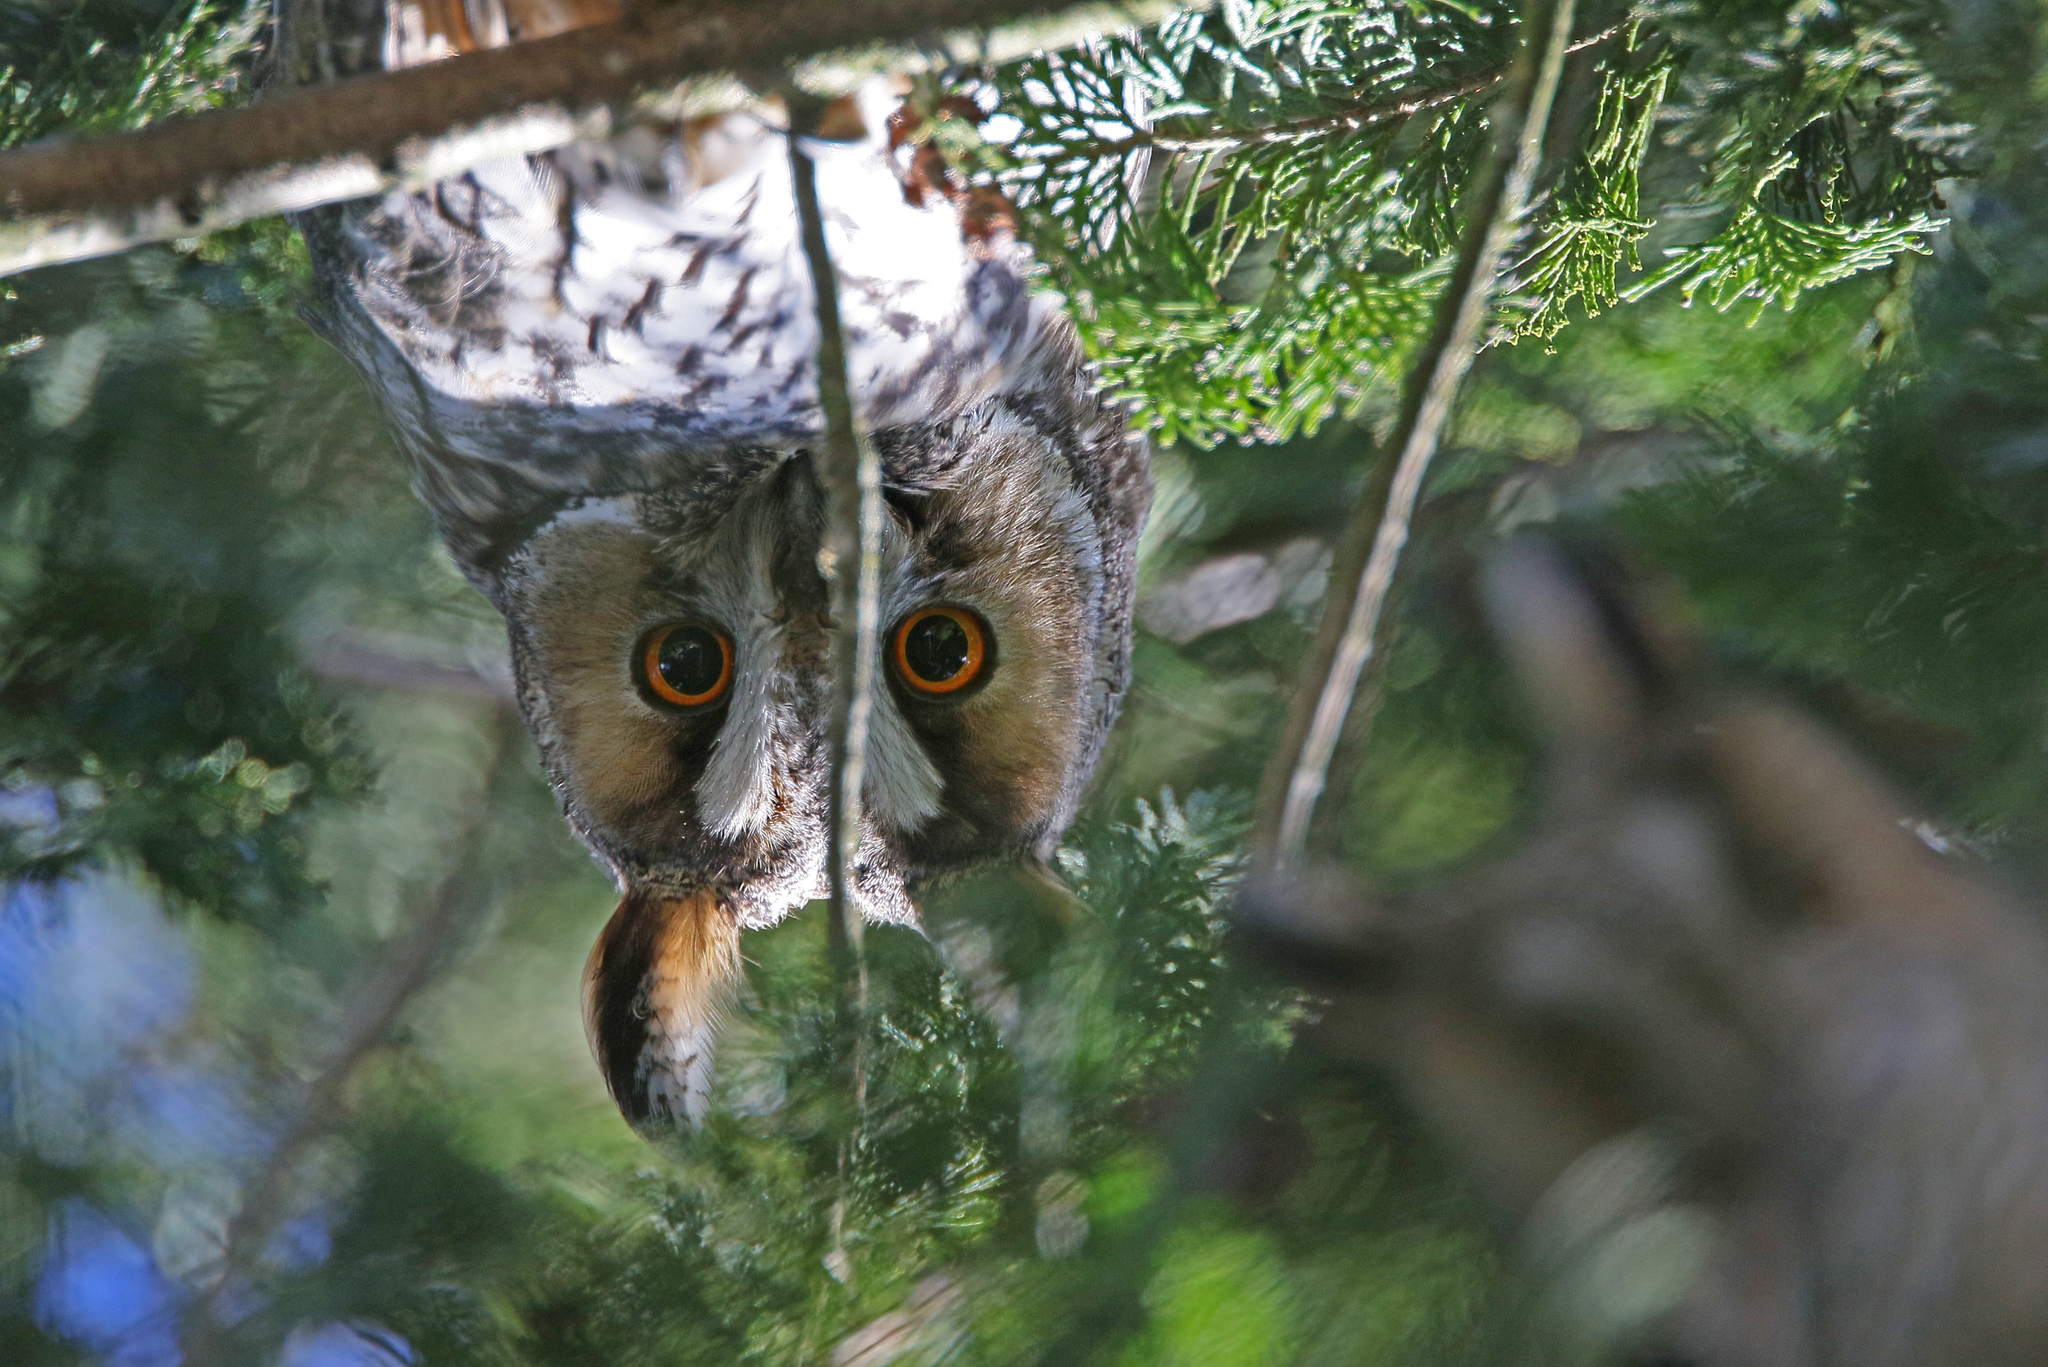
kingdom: Animalia
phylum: Chordata
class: Aves
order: Strigiformes
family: Strigidae
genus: Asio
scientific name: Asio otus
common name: Long-eared owl
